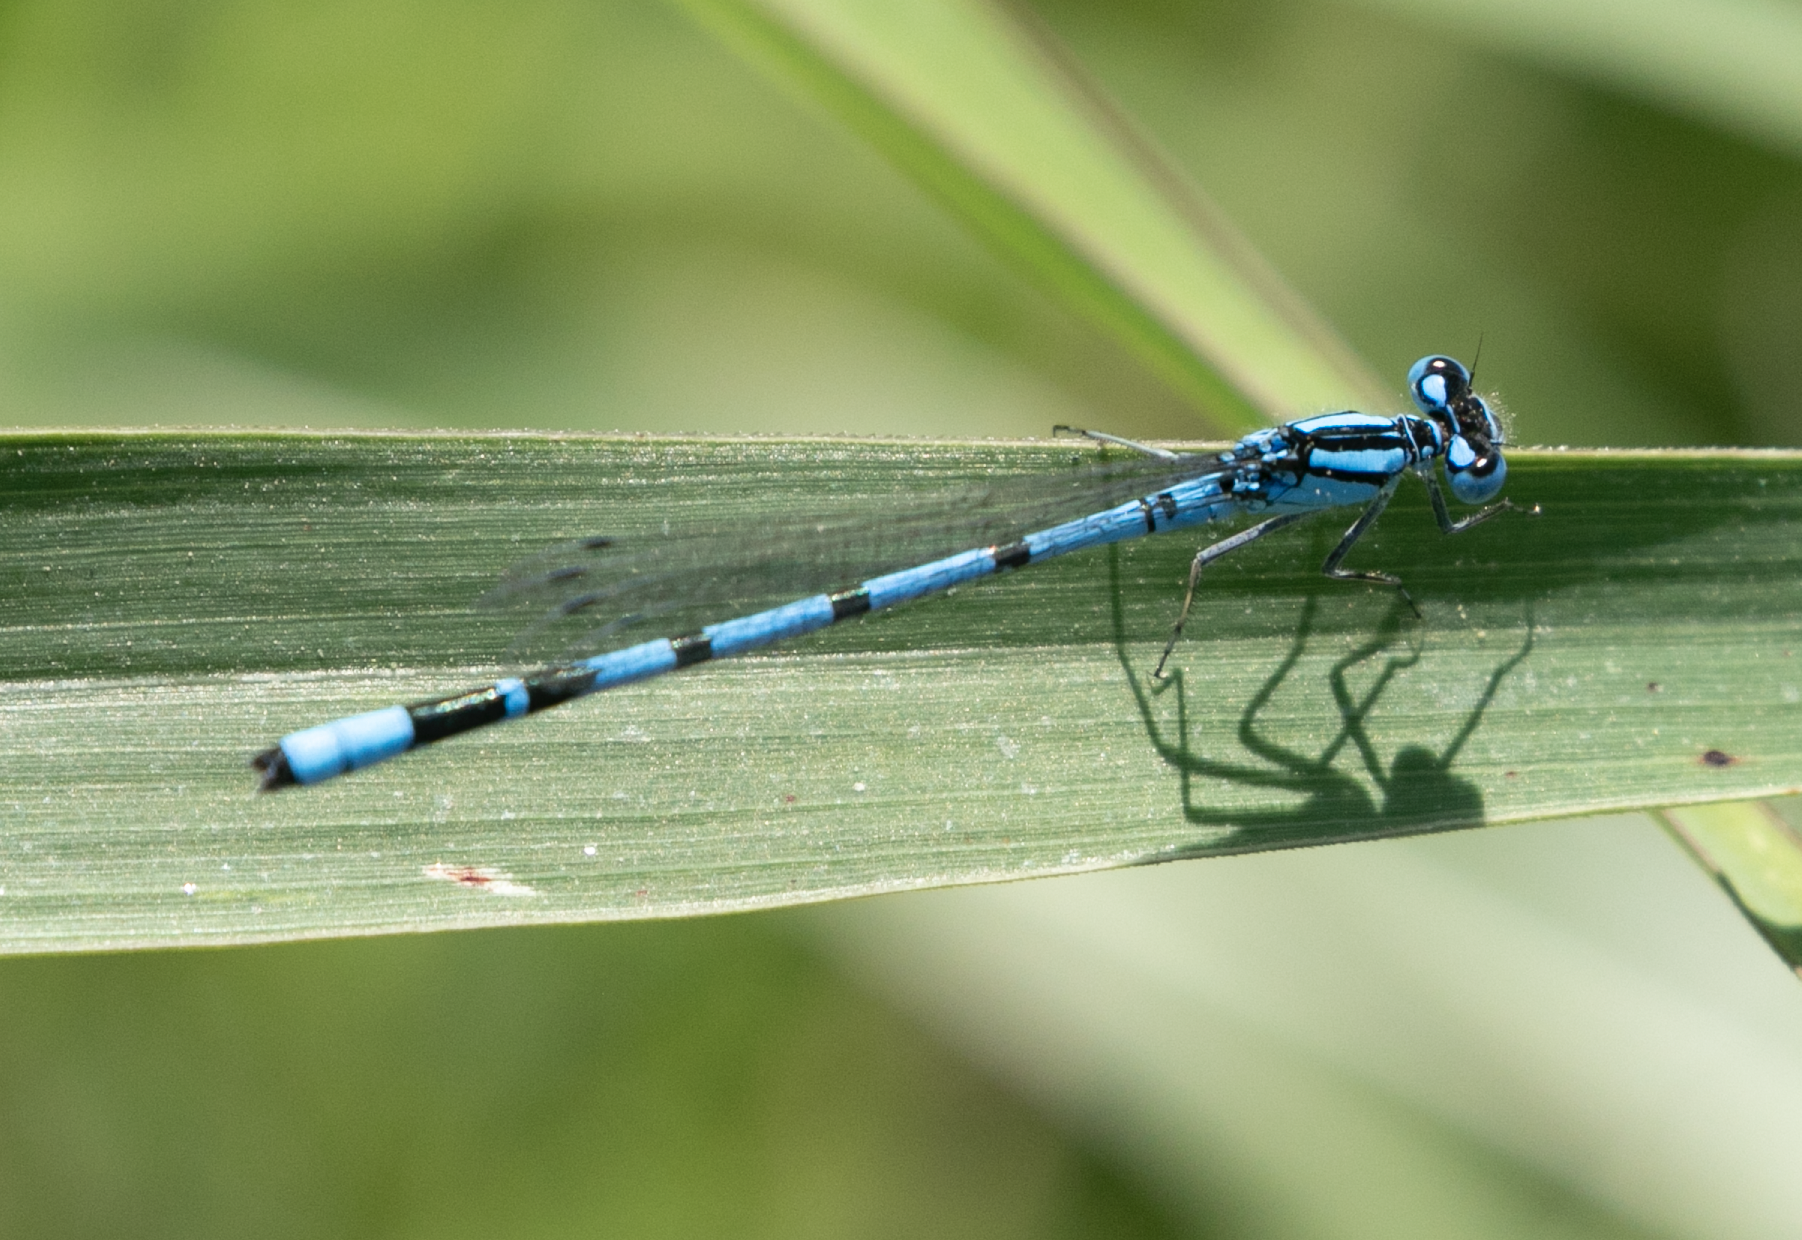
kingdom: Animalia
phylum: Arthropoda
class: Insecta
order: Odonata
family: Coenagrionidae
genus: Enallagma
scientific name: Enallagma cyathigerum
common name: Common blue damselfly
